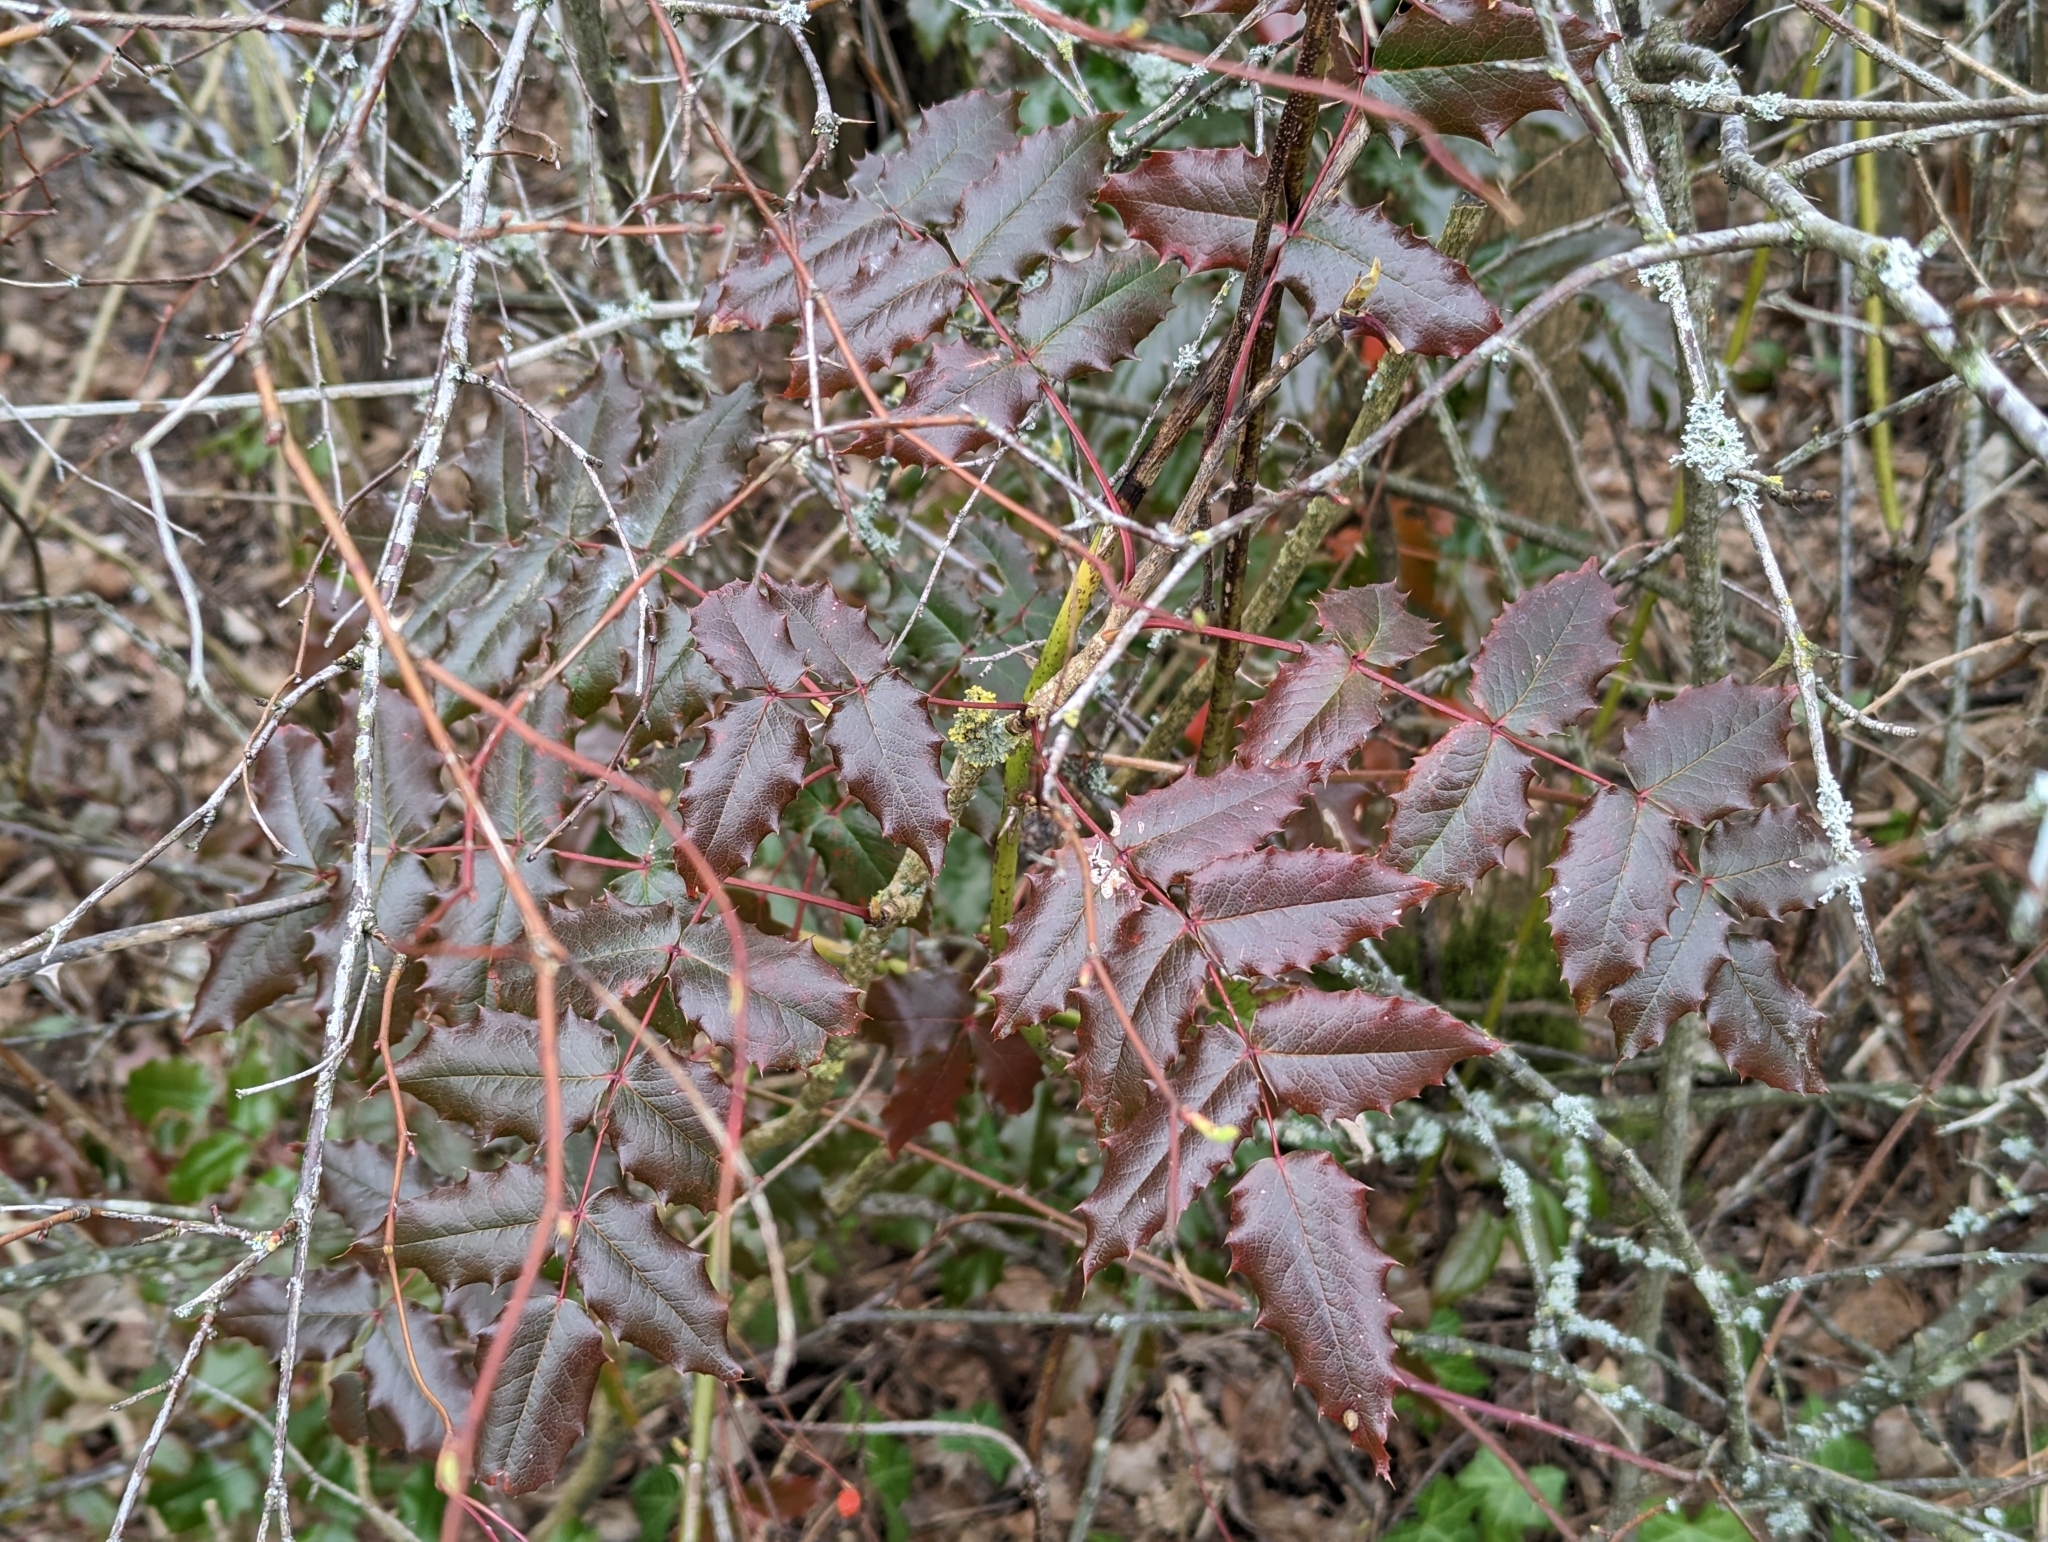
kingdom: Plantae
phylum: Tracheophyta
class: Magnoliopsida
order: Ranunculales
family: Berberidaceae
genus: Mahonia
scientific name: Mahonia aquifolium
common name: Oregon-grape
